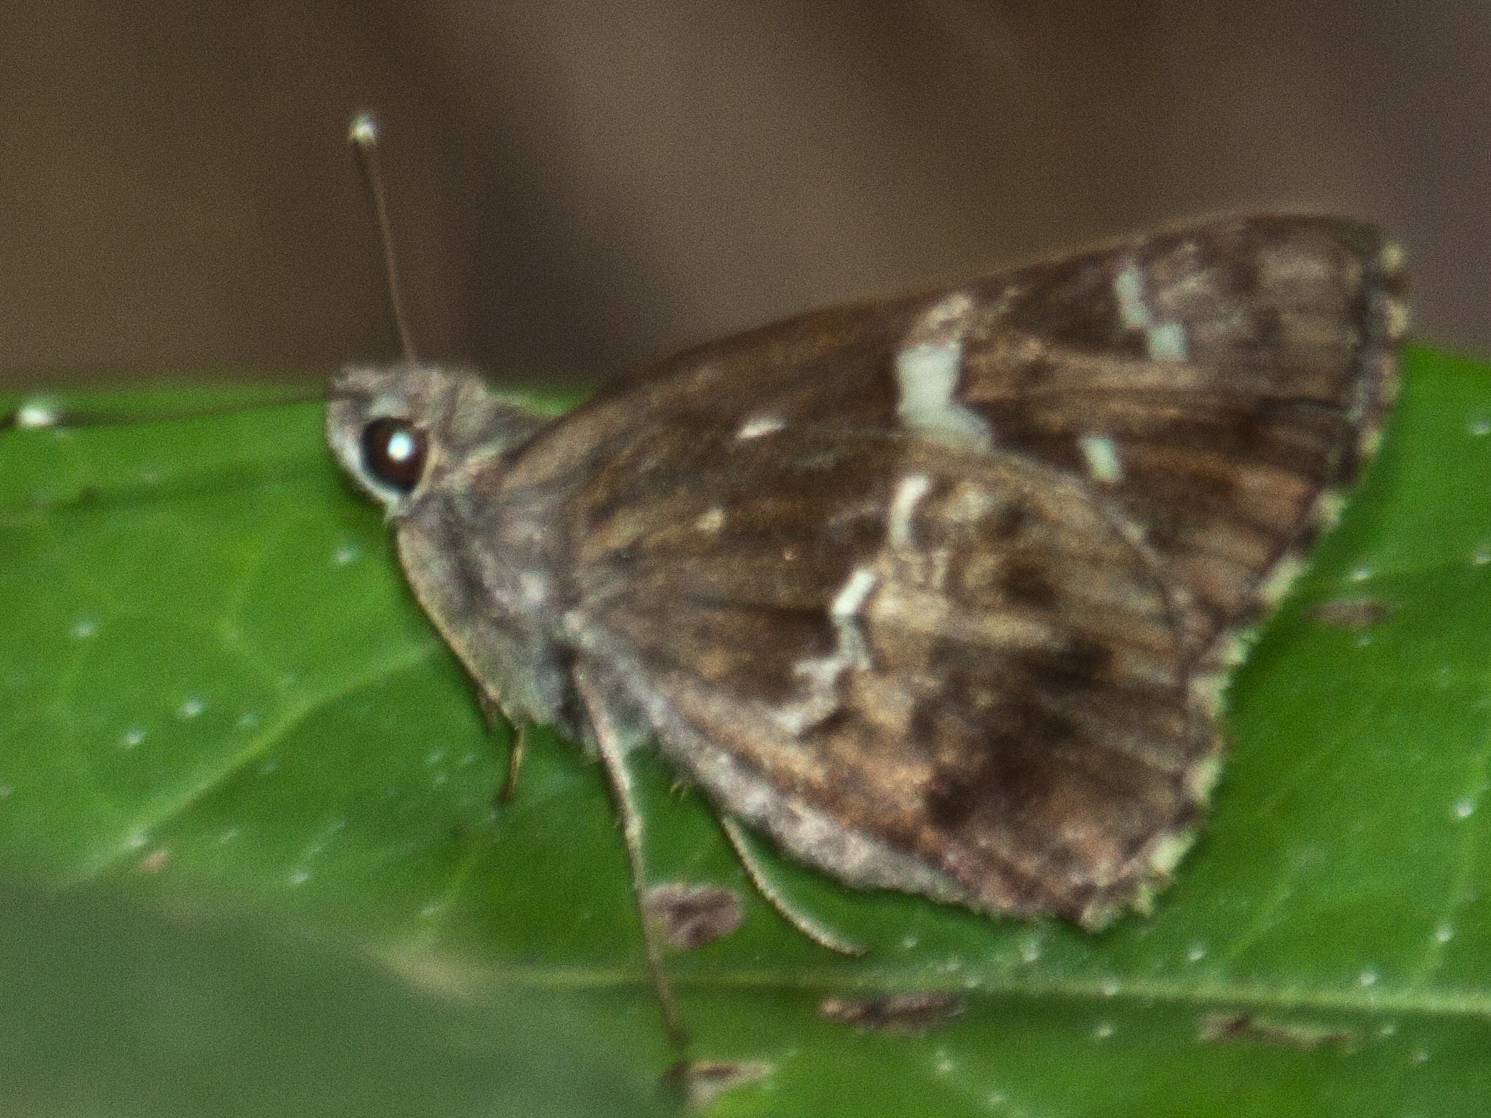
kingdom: Animalia
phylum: Arthropoda
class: Insecta
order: Lepidoptera
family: Hesperiidae
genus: Hyarotis
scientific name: Hyarotis adrastus
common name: Tree flitter
